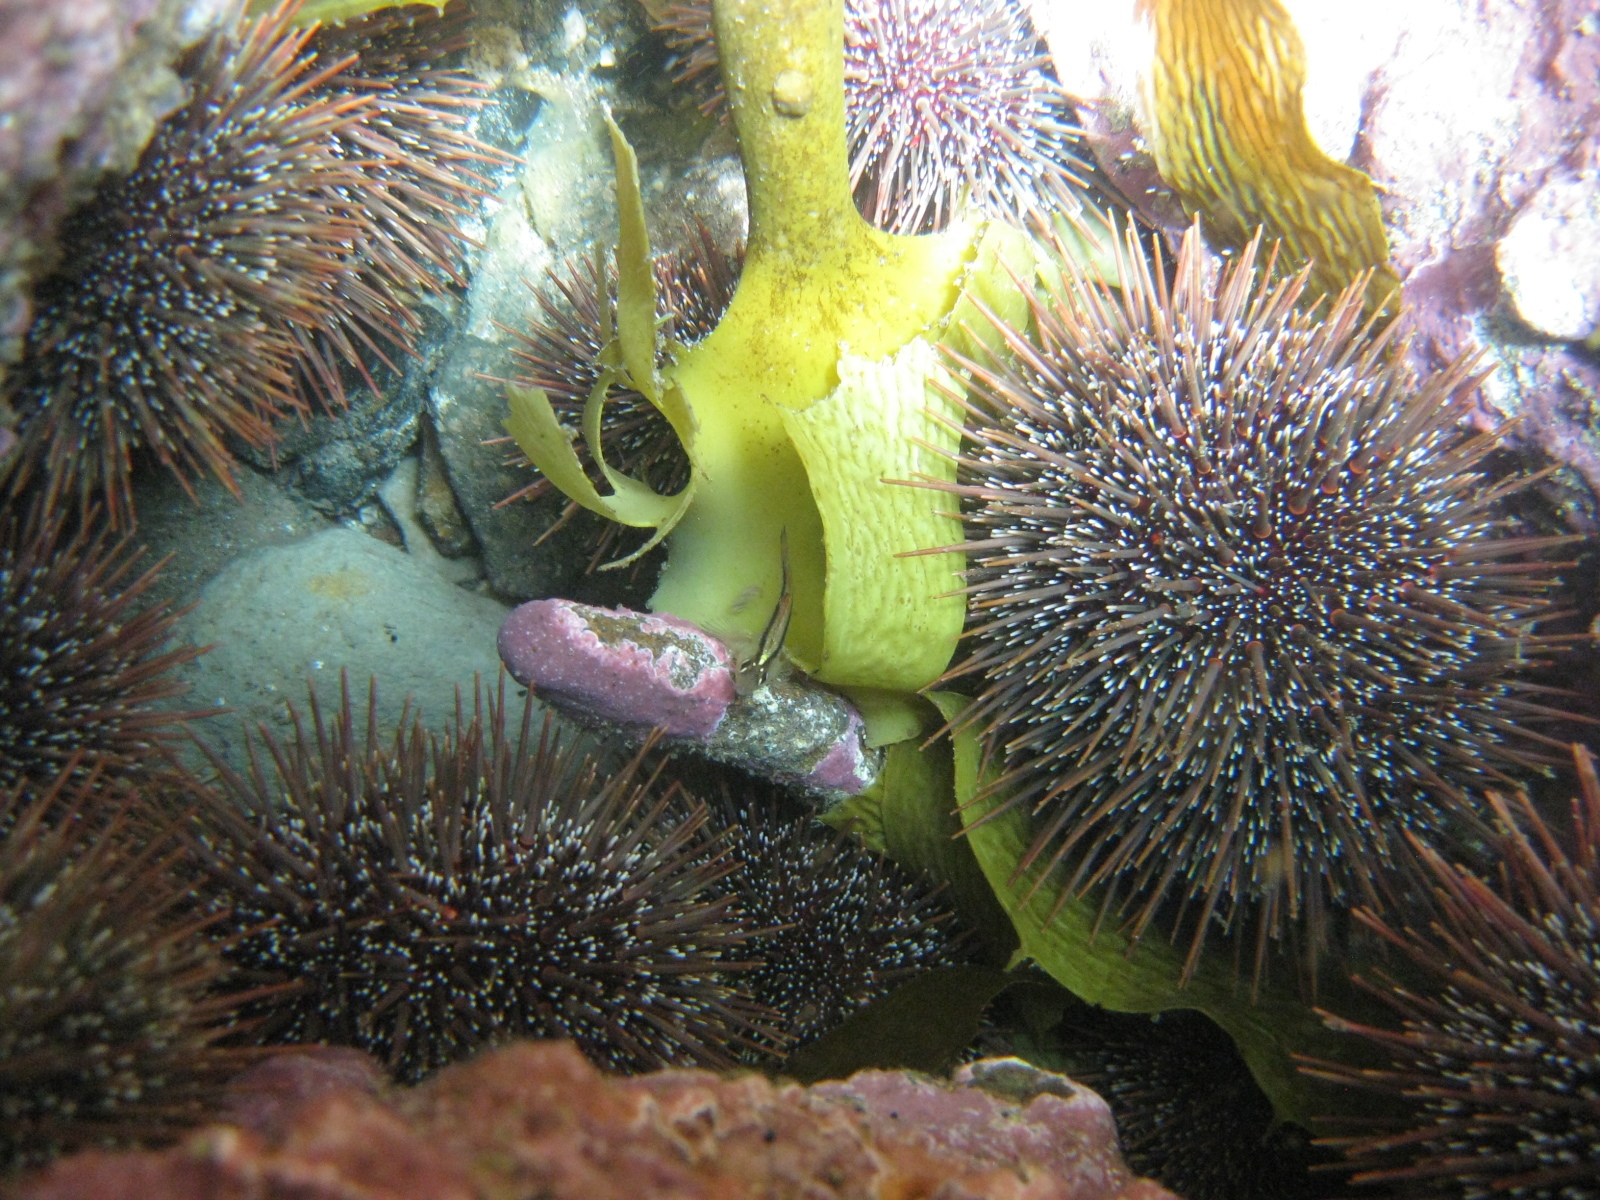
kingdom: Animalia
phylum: Echinodermata
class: Echinoidea
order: Camarodonta
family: Echinometridae
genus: Evechinus
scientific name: Evechinus chloroticus
